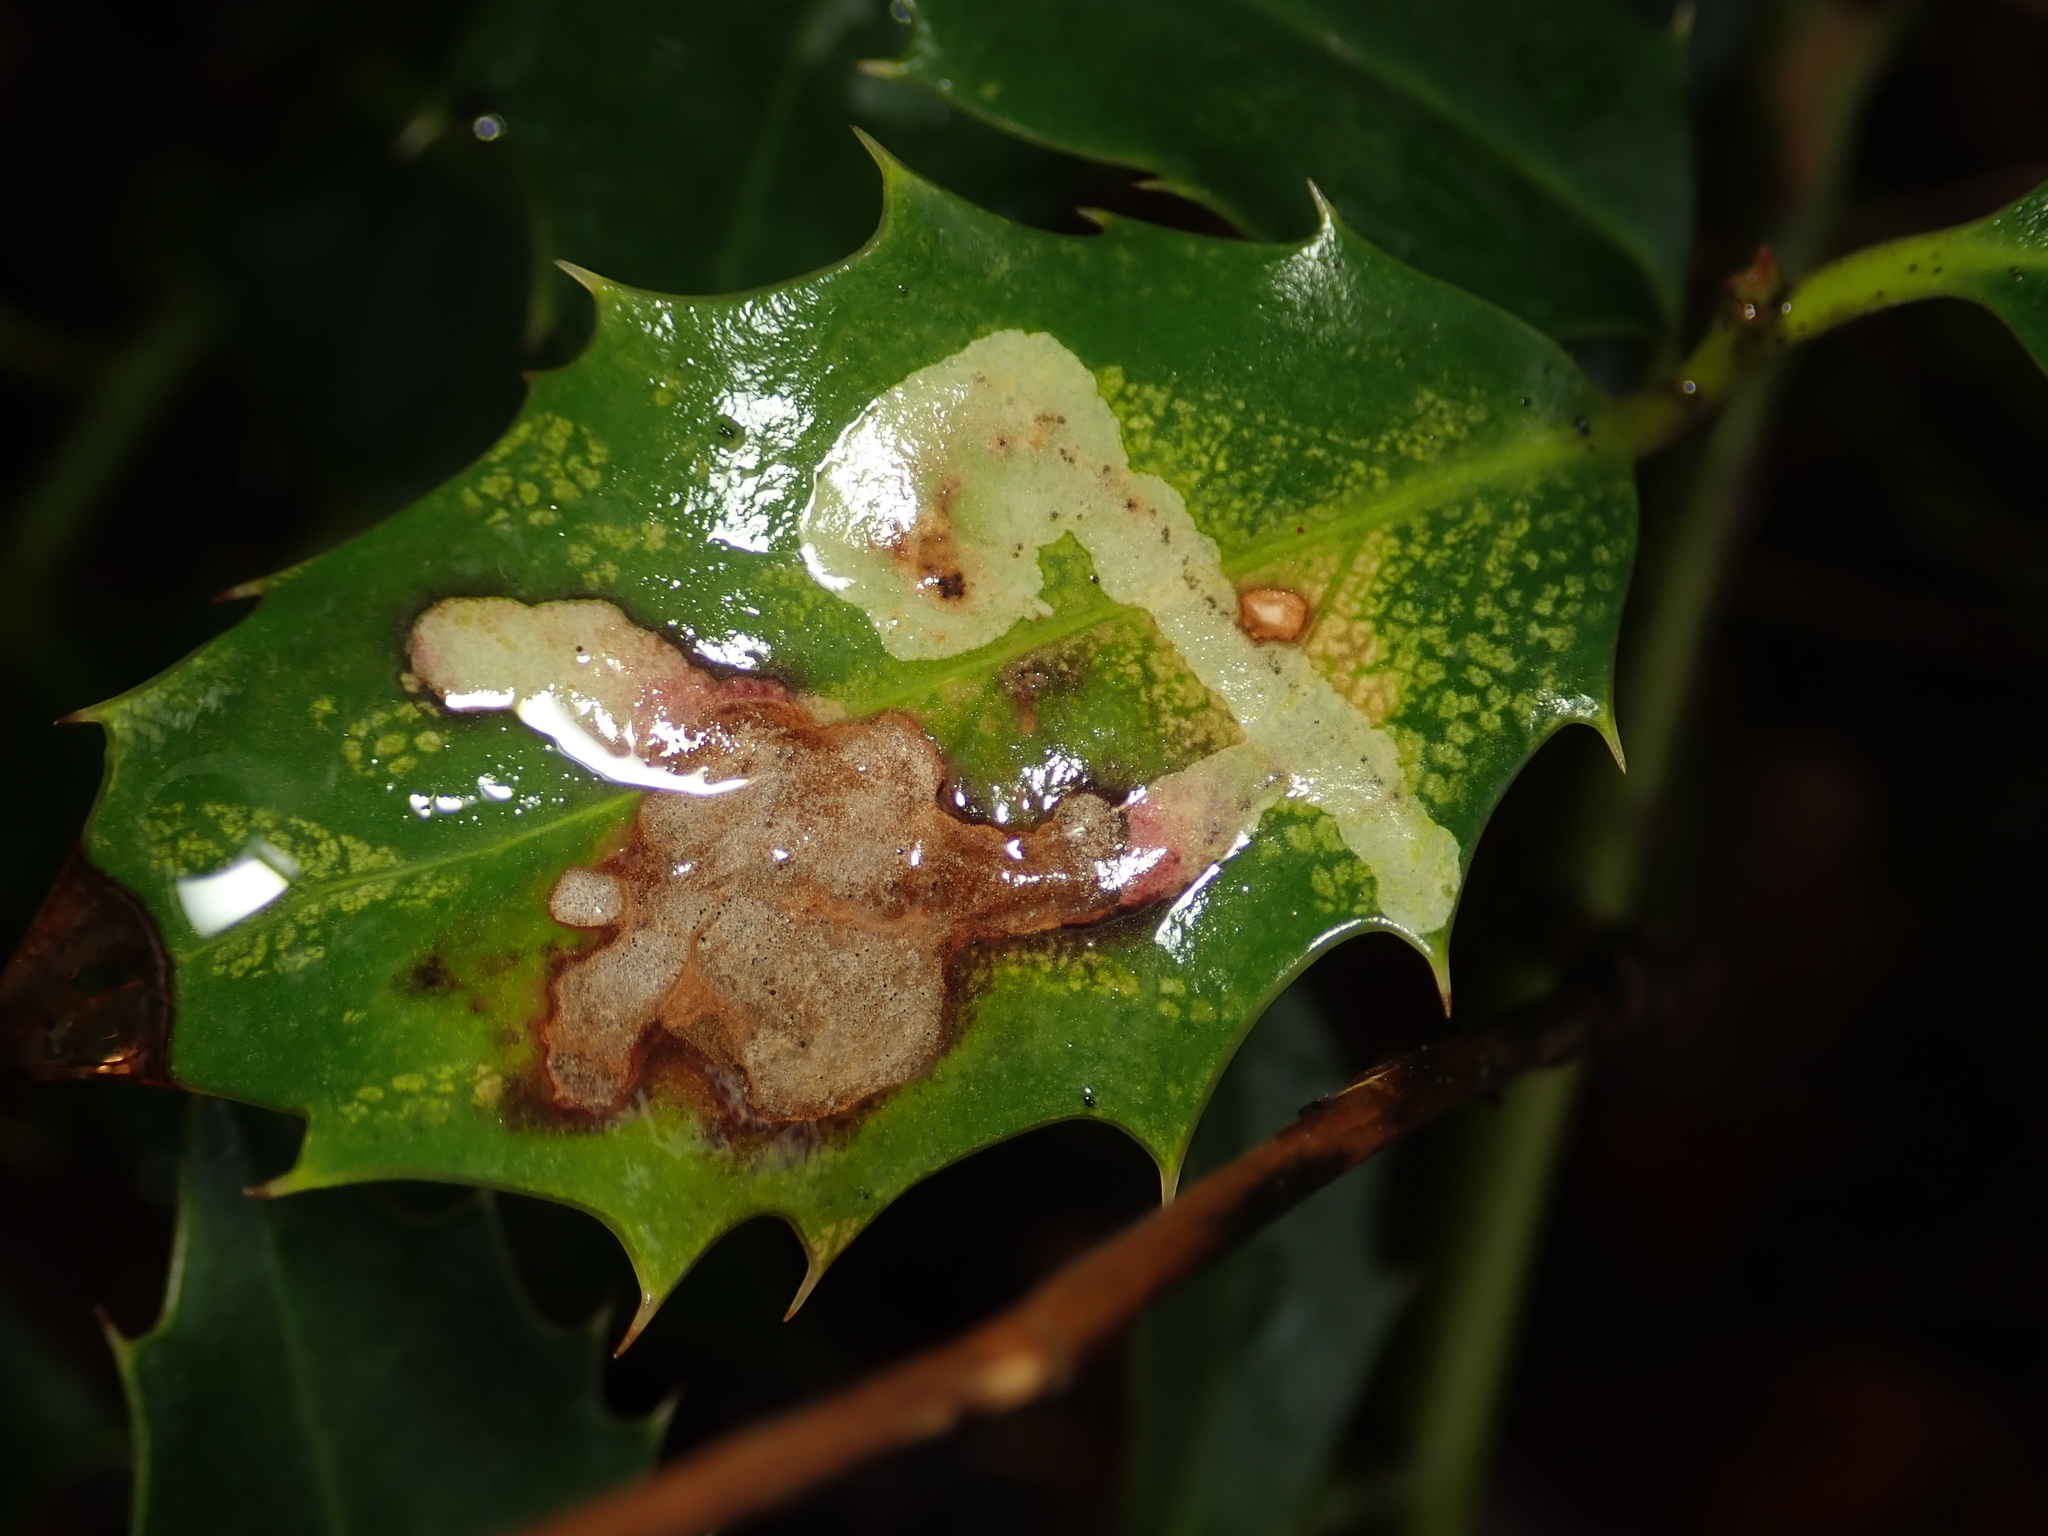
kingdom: Animalia
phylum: Arthropoda
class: Insecta
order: Diptera
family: Agromyzidae
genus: Phytomyza
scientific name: Phytomyza ilicis
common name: Holly leafminer
